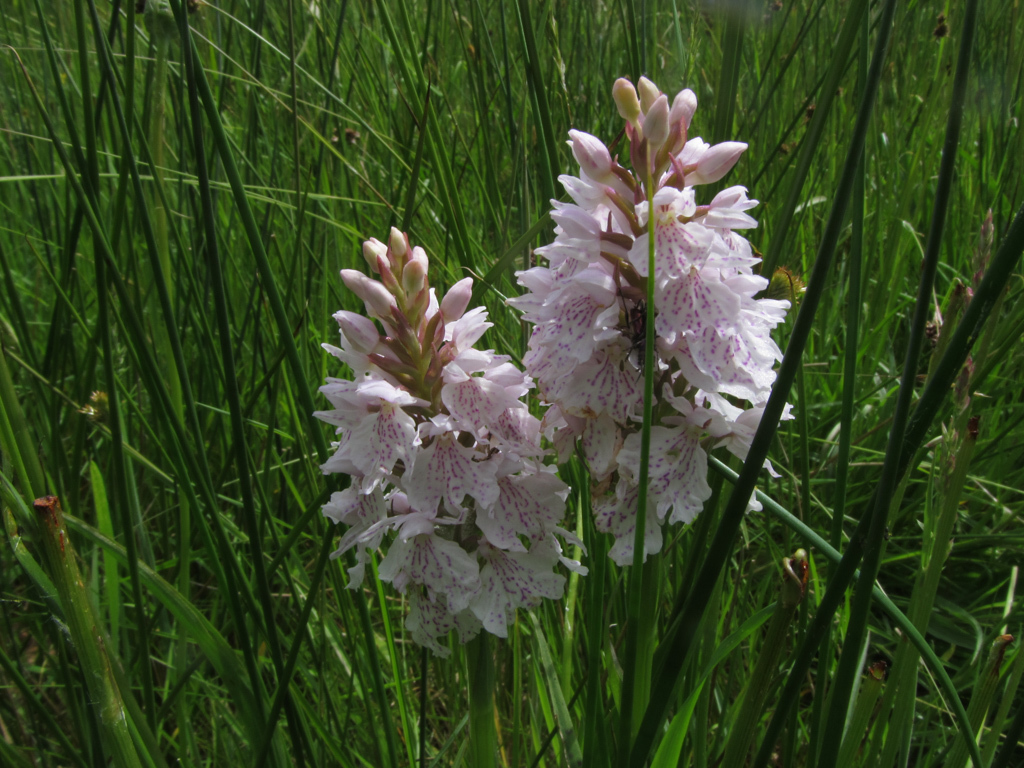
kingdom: Plantae
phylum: Tracheophyta
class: Liliopsida
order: Asparagales
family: Orchidaceae
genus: Dactylorhiza
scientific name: Dactylorhiza maculata
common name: Heath spotted-orchid
